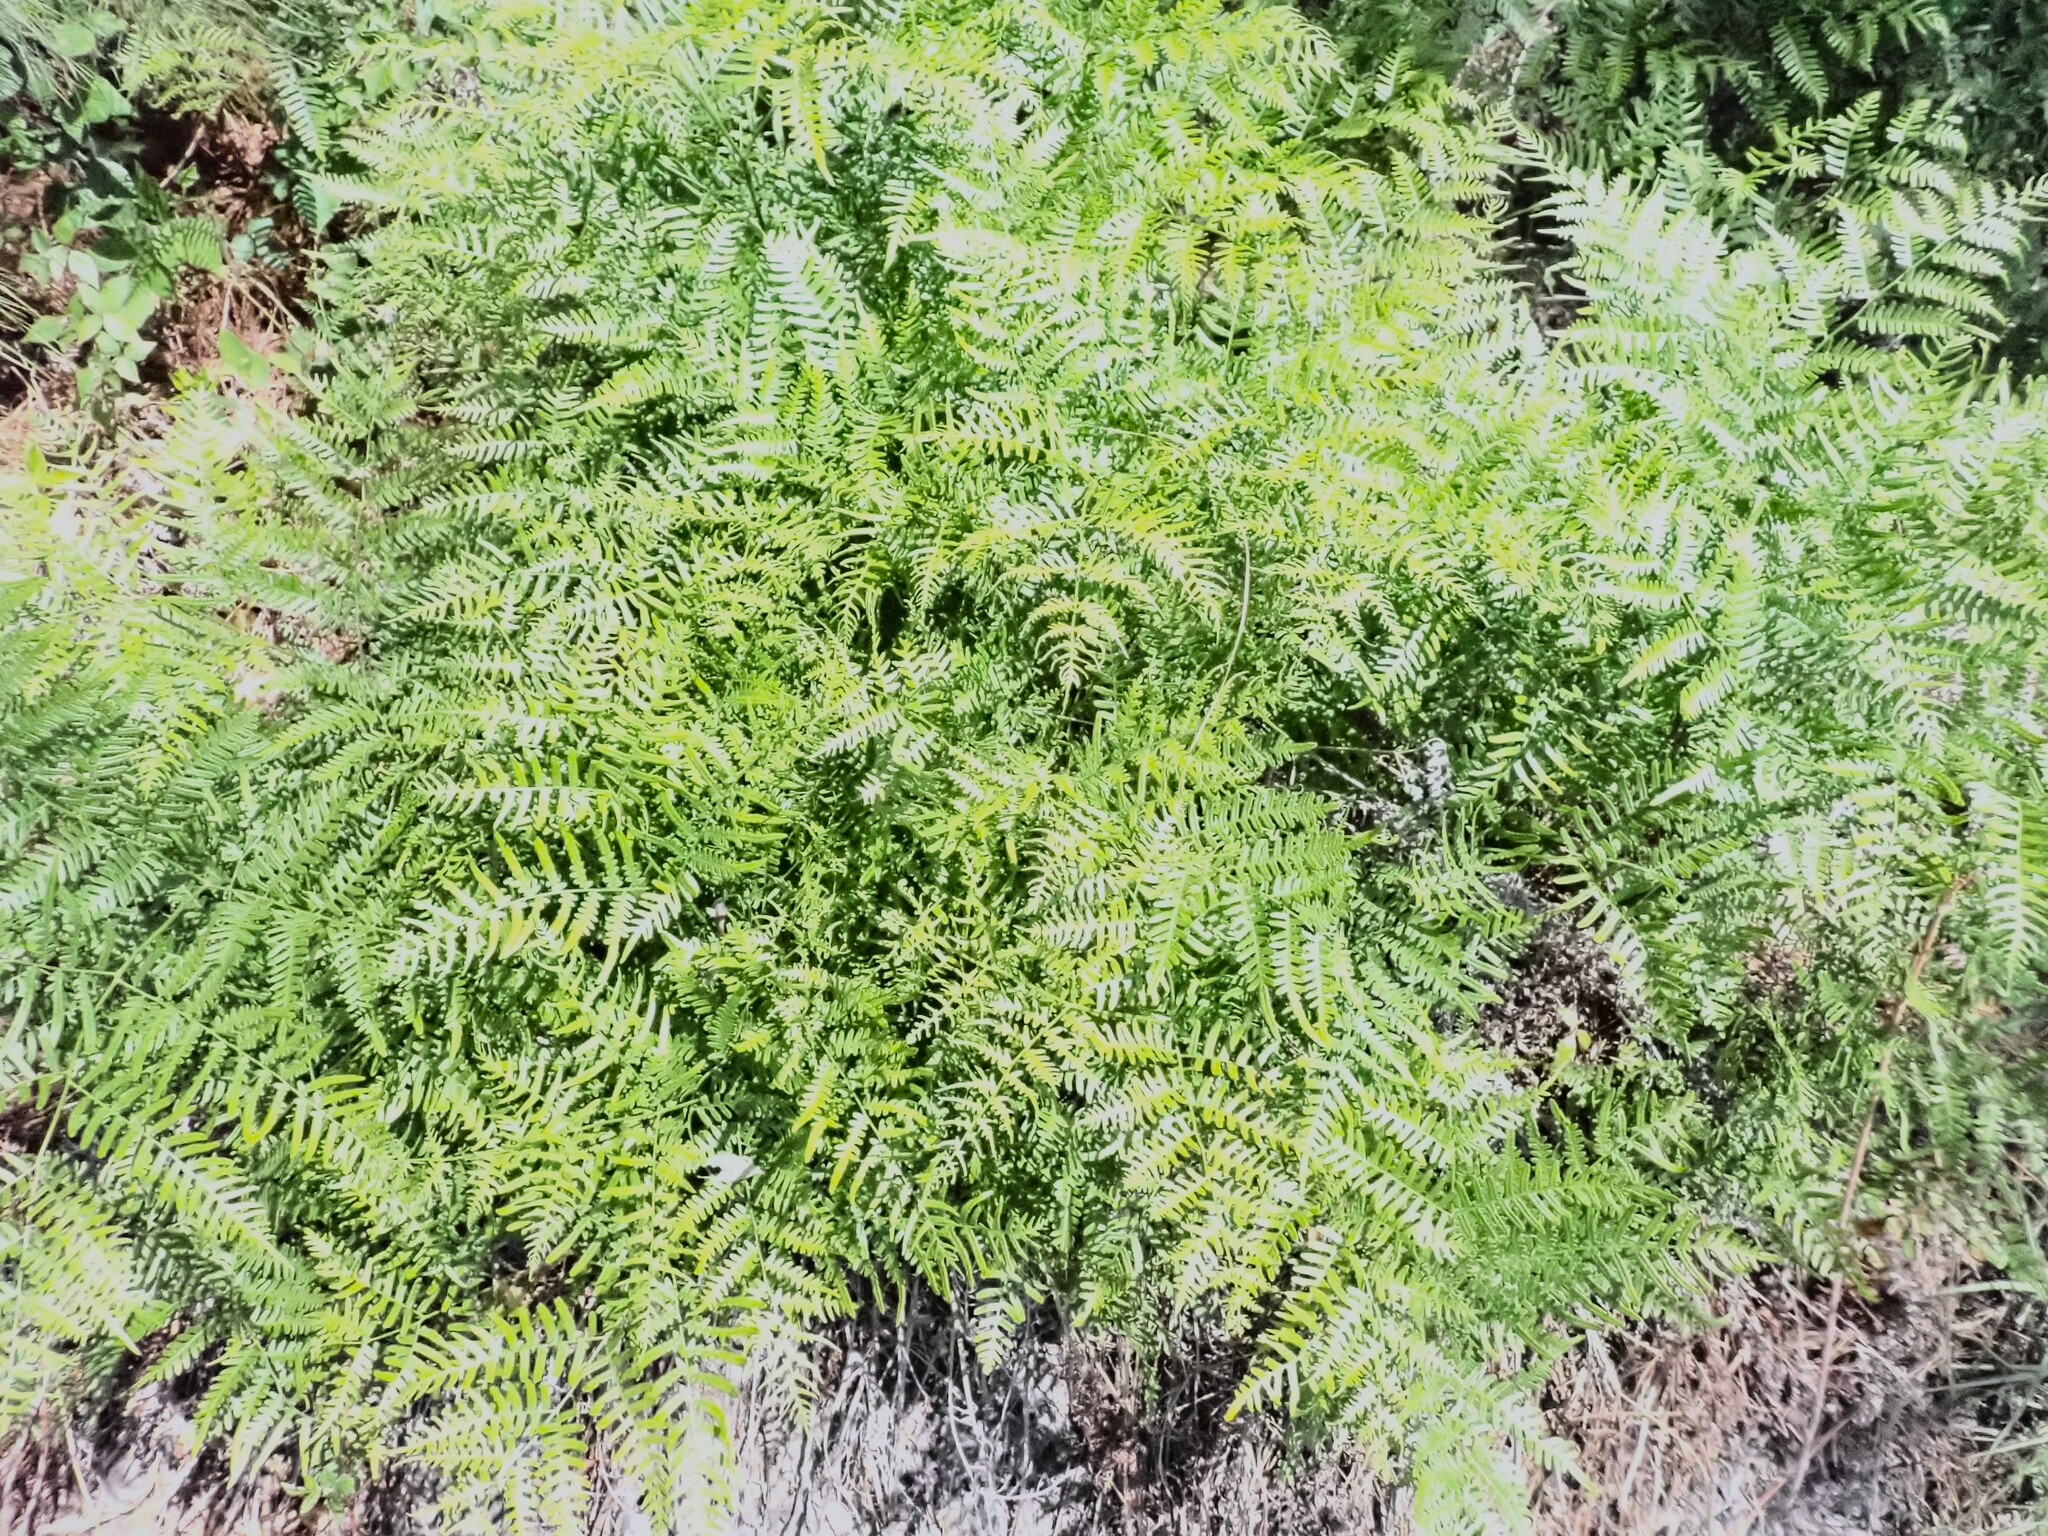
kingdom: Plantae
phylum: Tracheophyta
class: Polypodiopsida
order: Polypodiales
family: Dennstaedtiaceae
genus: Pteridium
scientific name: Pteridium aquilinum
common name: Bracken
